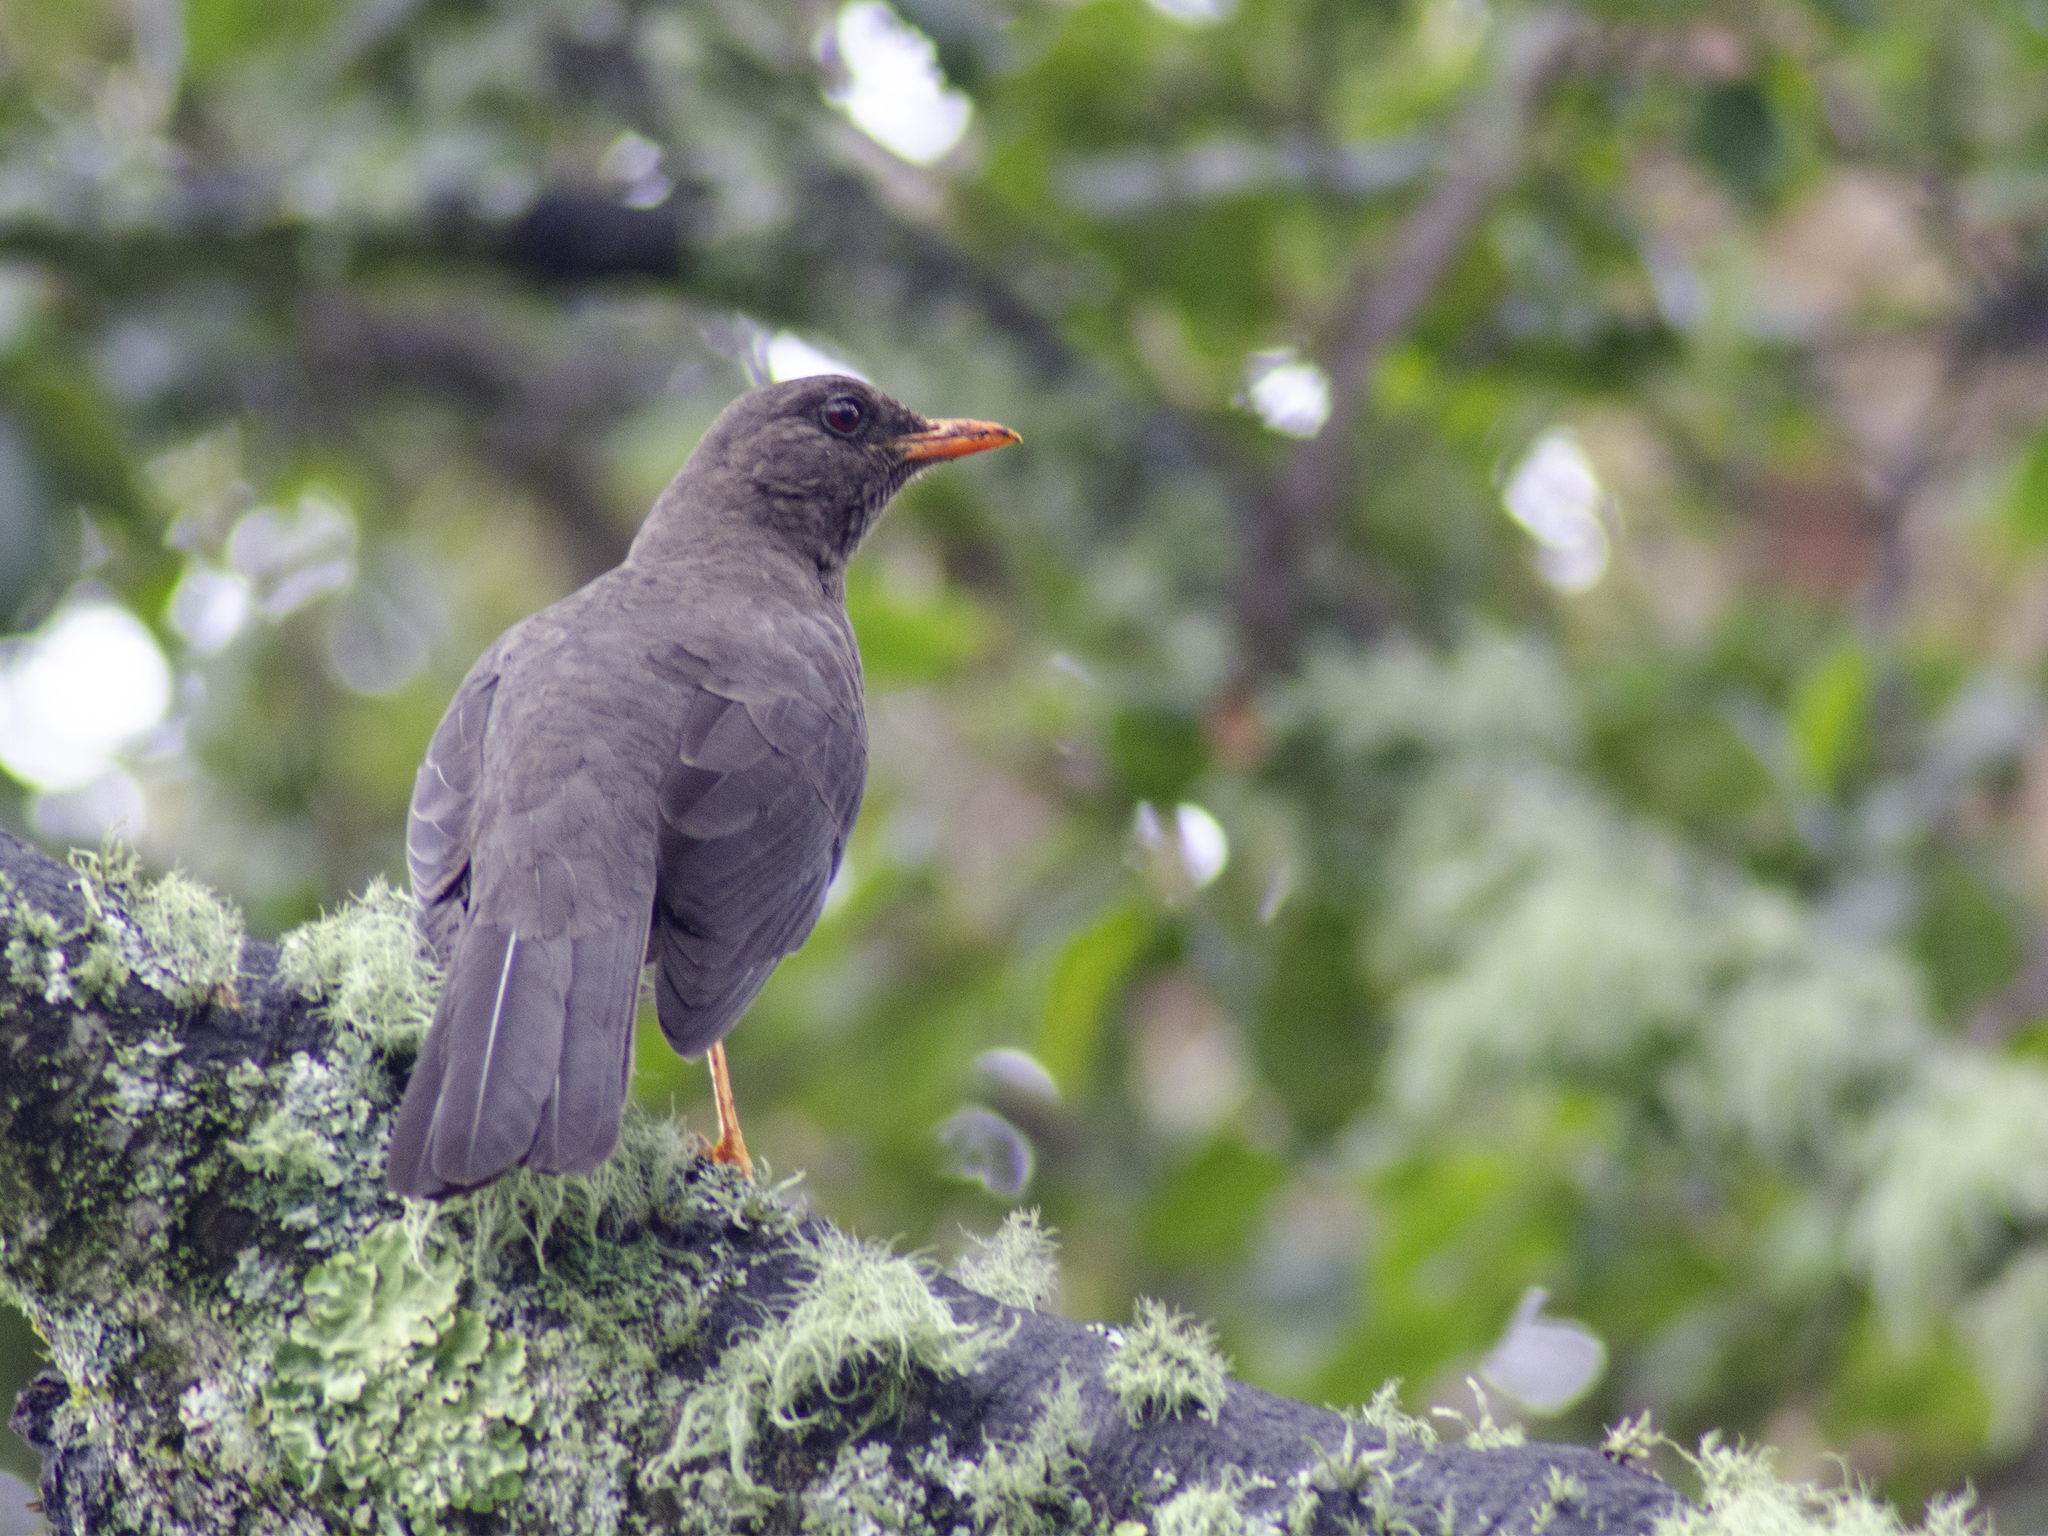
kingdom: Animalia
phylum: Chordata
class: Aves
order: Passeriformes
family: Turdidae
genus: Turdus
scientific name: Turdus fuscater
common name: Great thrush
